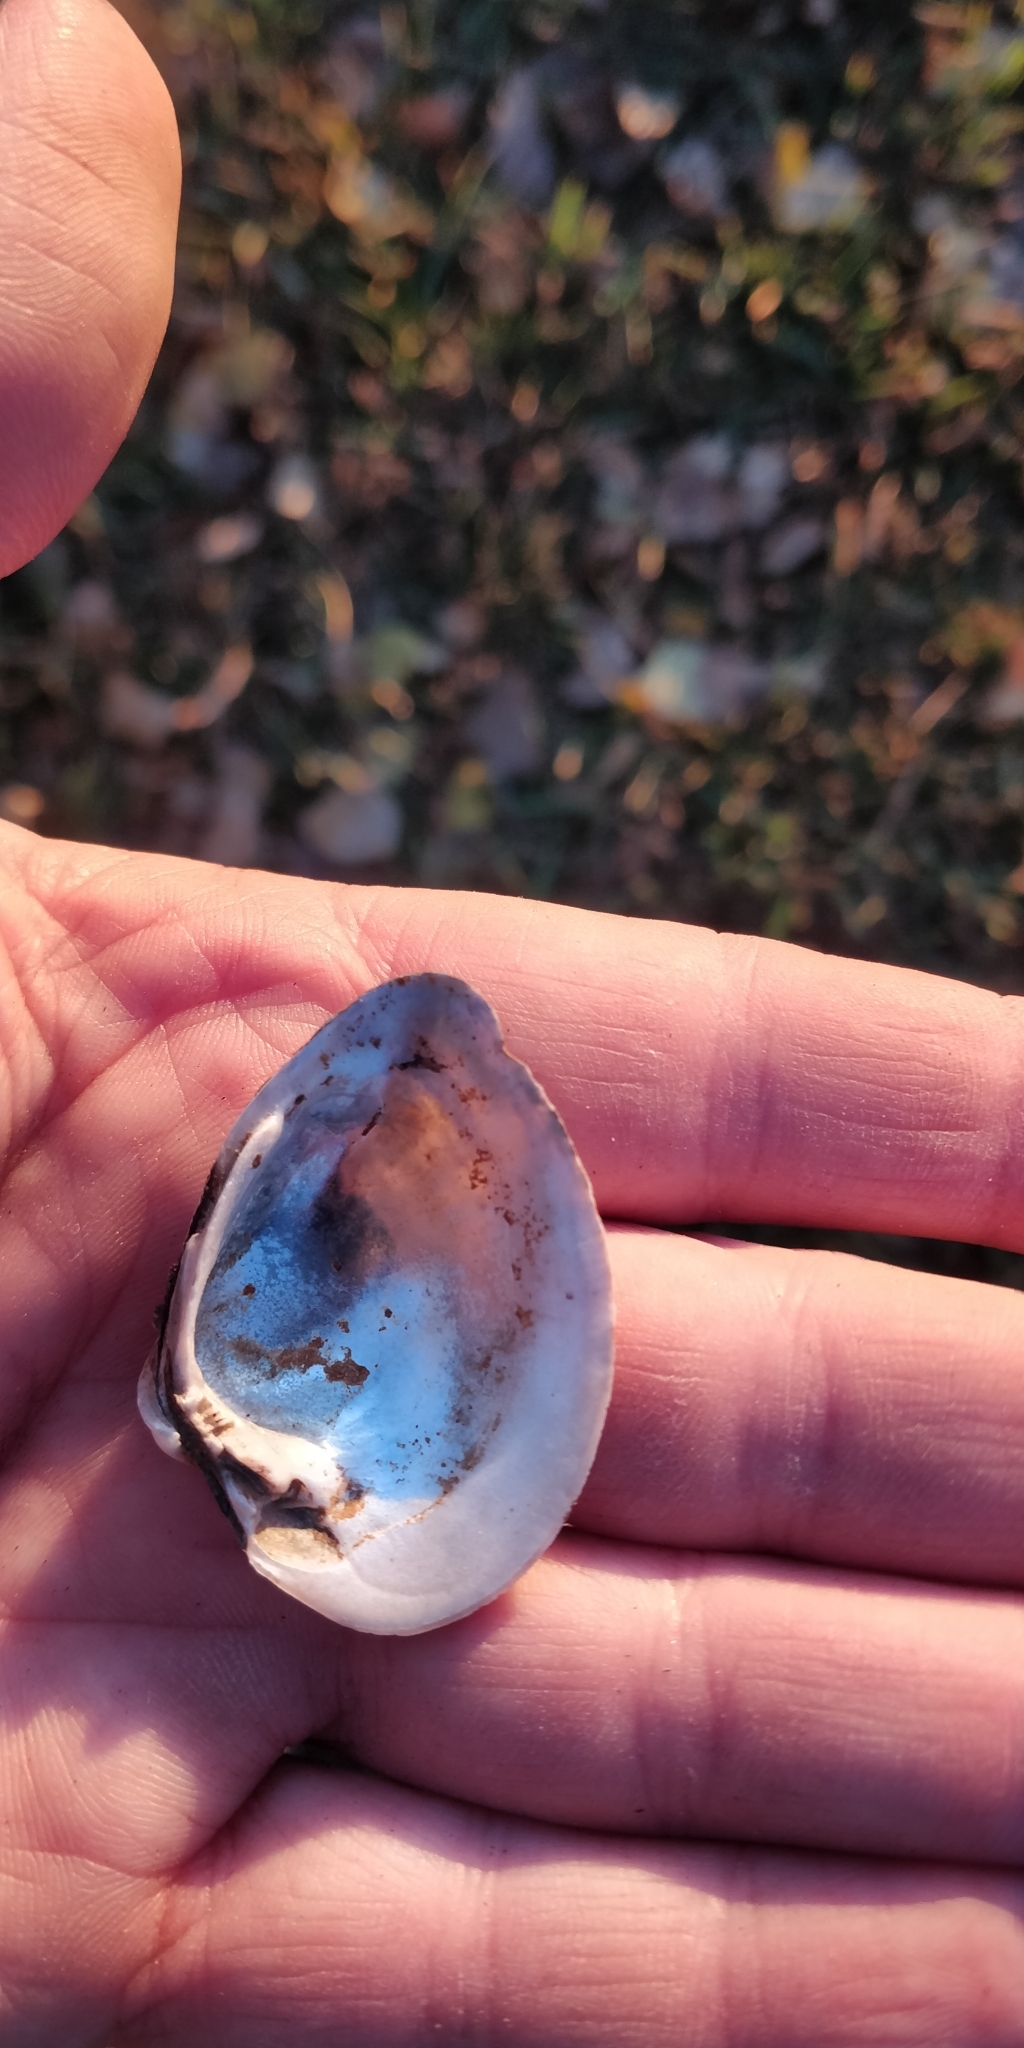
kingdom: Animalia
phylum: Mollusca
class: Bivalvia
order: Unionida
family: Unionidae
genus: Truncilla
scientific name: Truncilla truncata
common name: Deertoe
